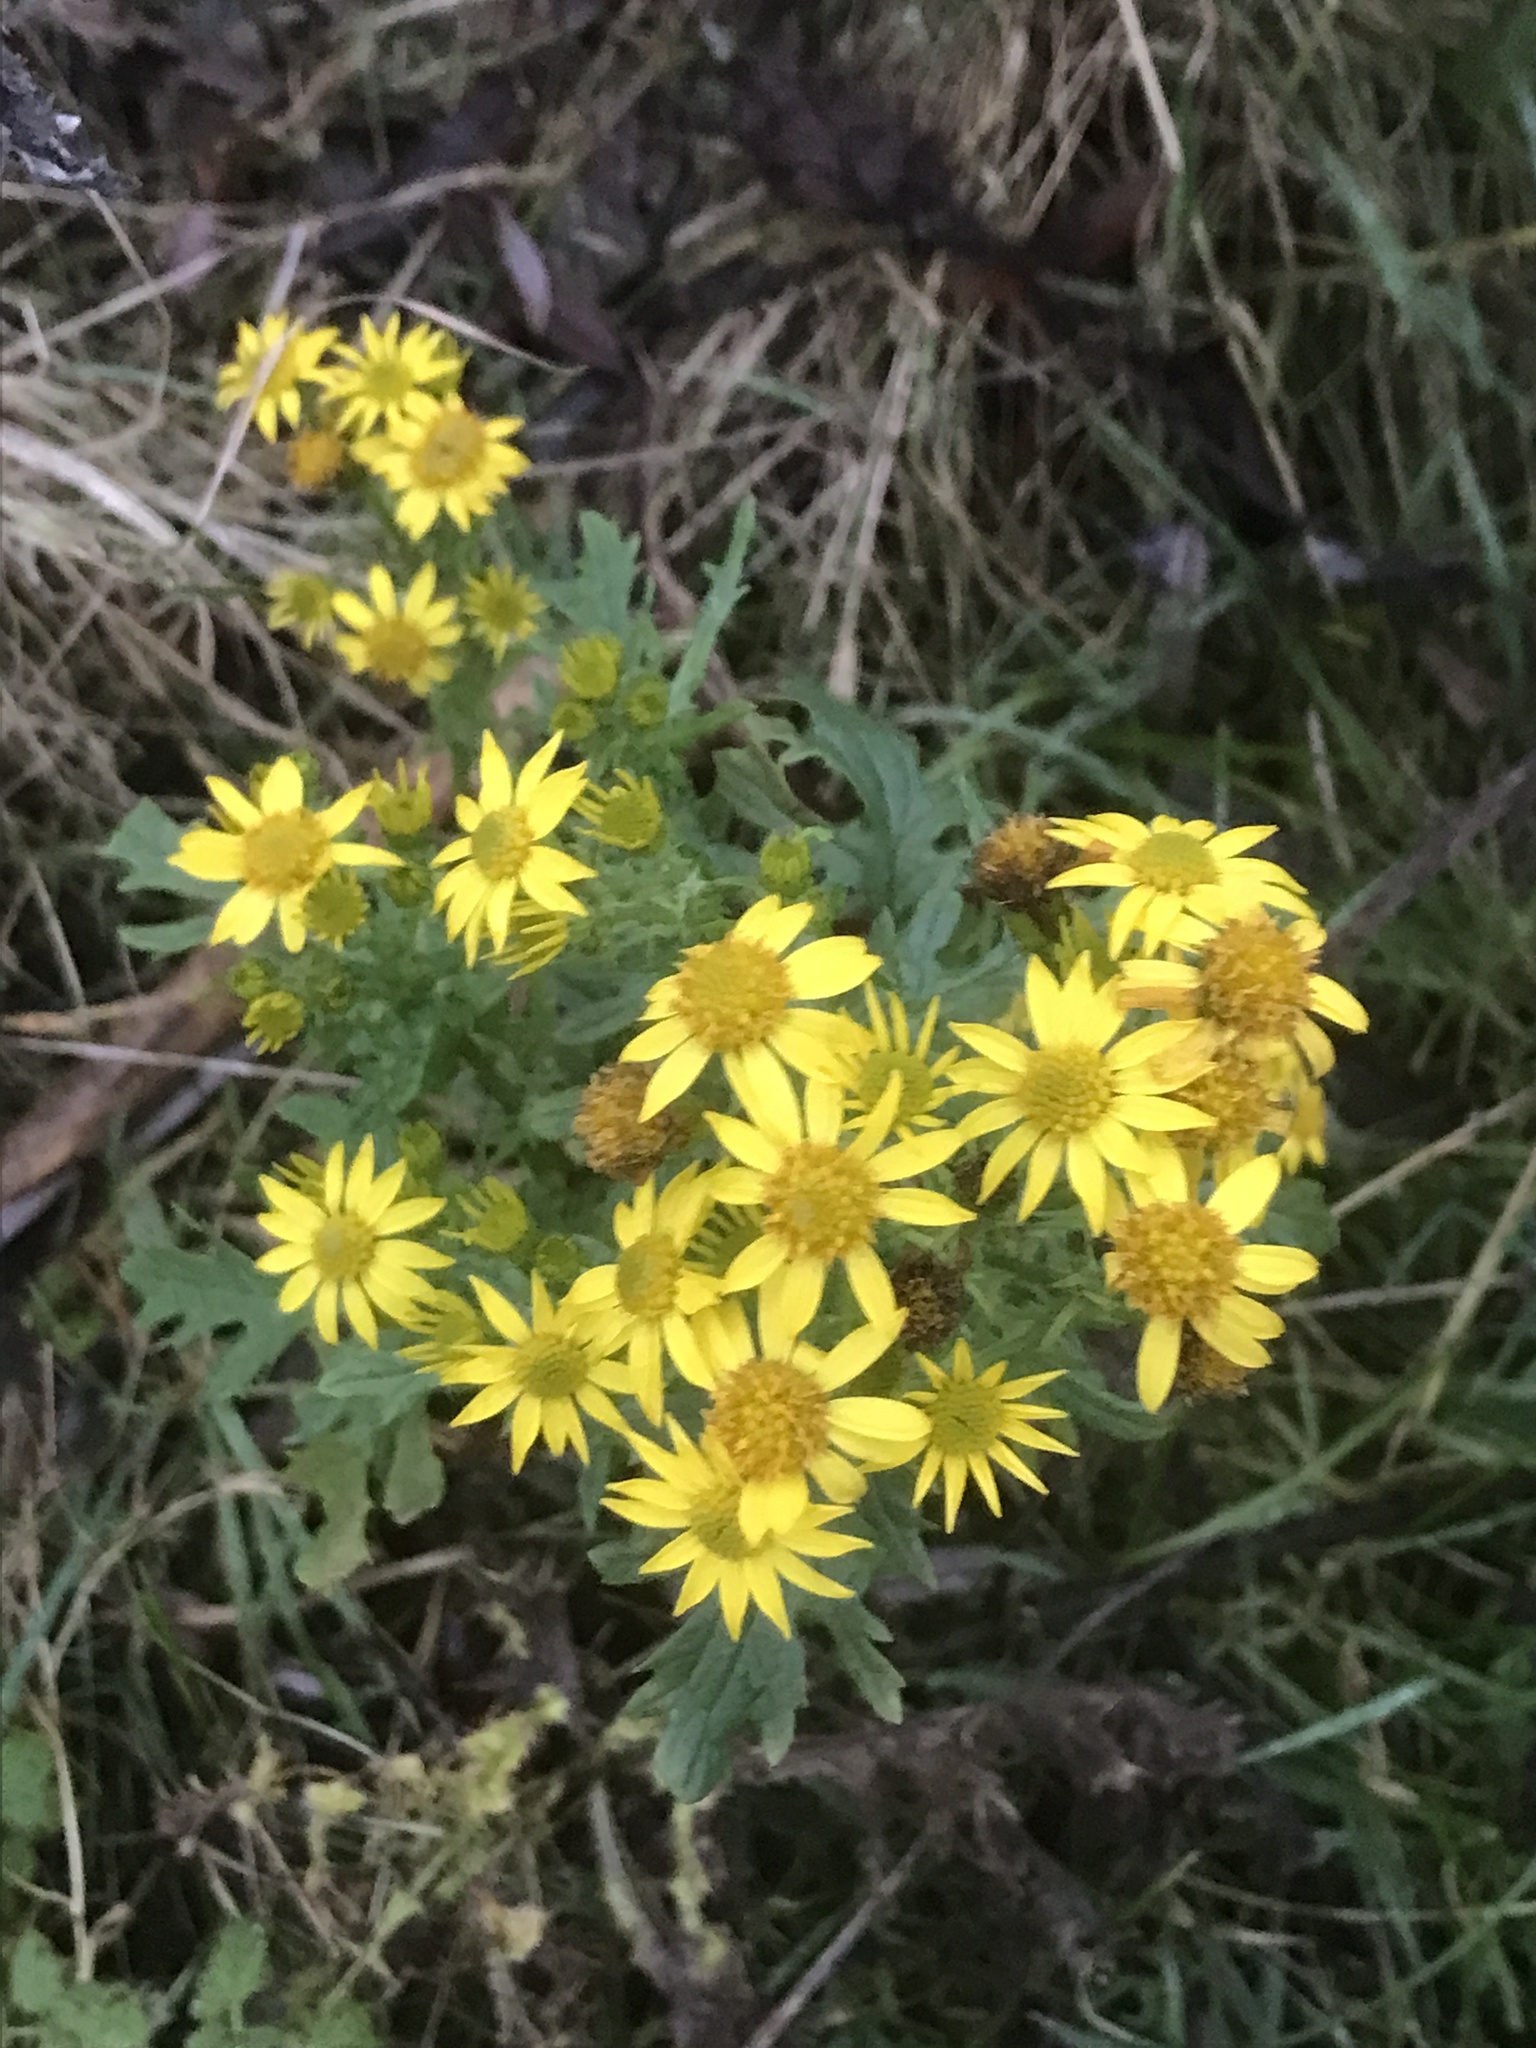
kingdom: Plantae
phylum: Tracheophyta
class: Magnoliopsida
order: Asterales
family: Asteraceae
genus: Jacobaea
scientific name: Jacobaea vulgaris
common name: Stinking willie
